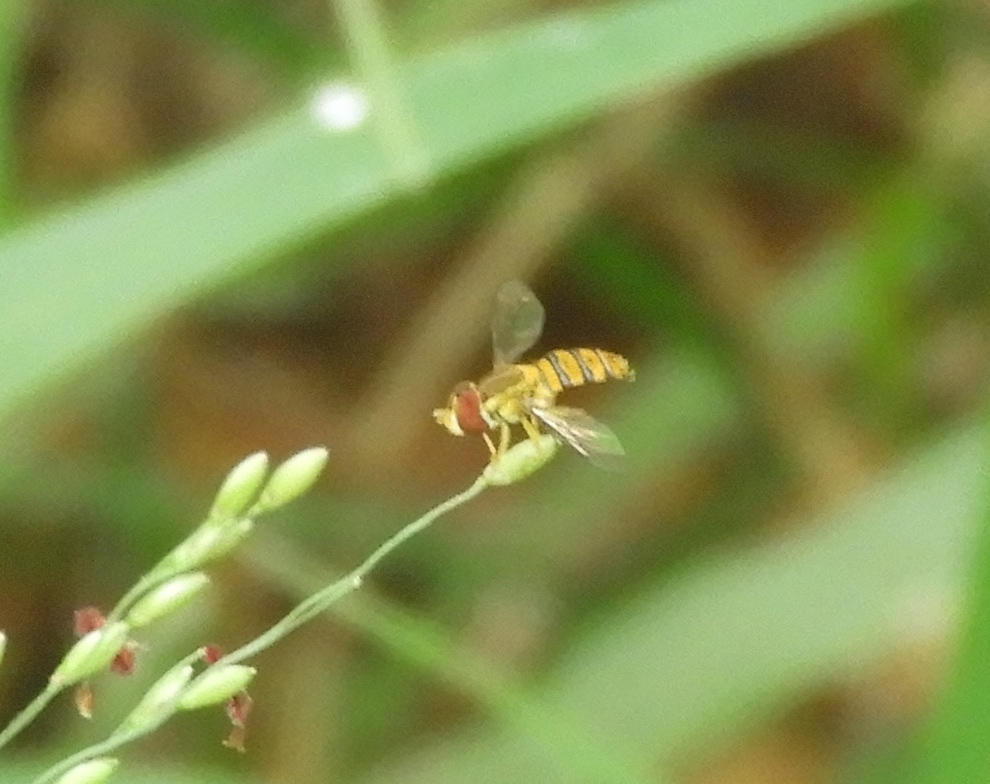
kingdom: Animalia
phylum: Arthropoda
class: Insecta
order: Diptera
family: Syrphidae
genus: Toxomerus
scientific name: Toxomerus
